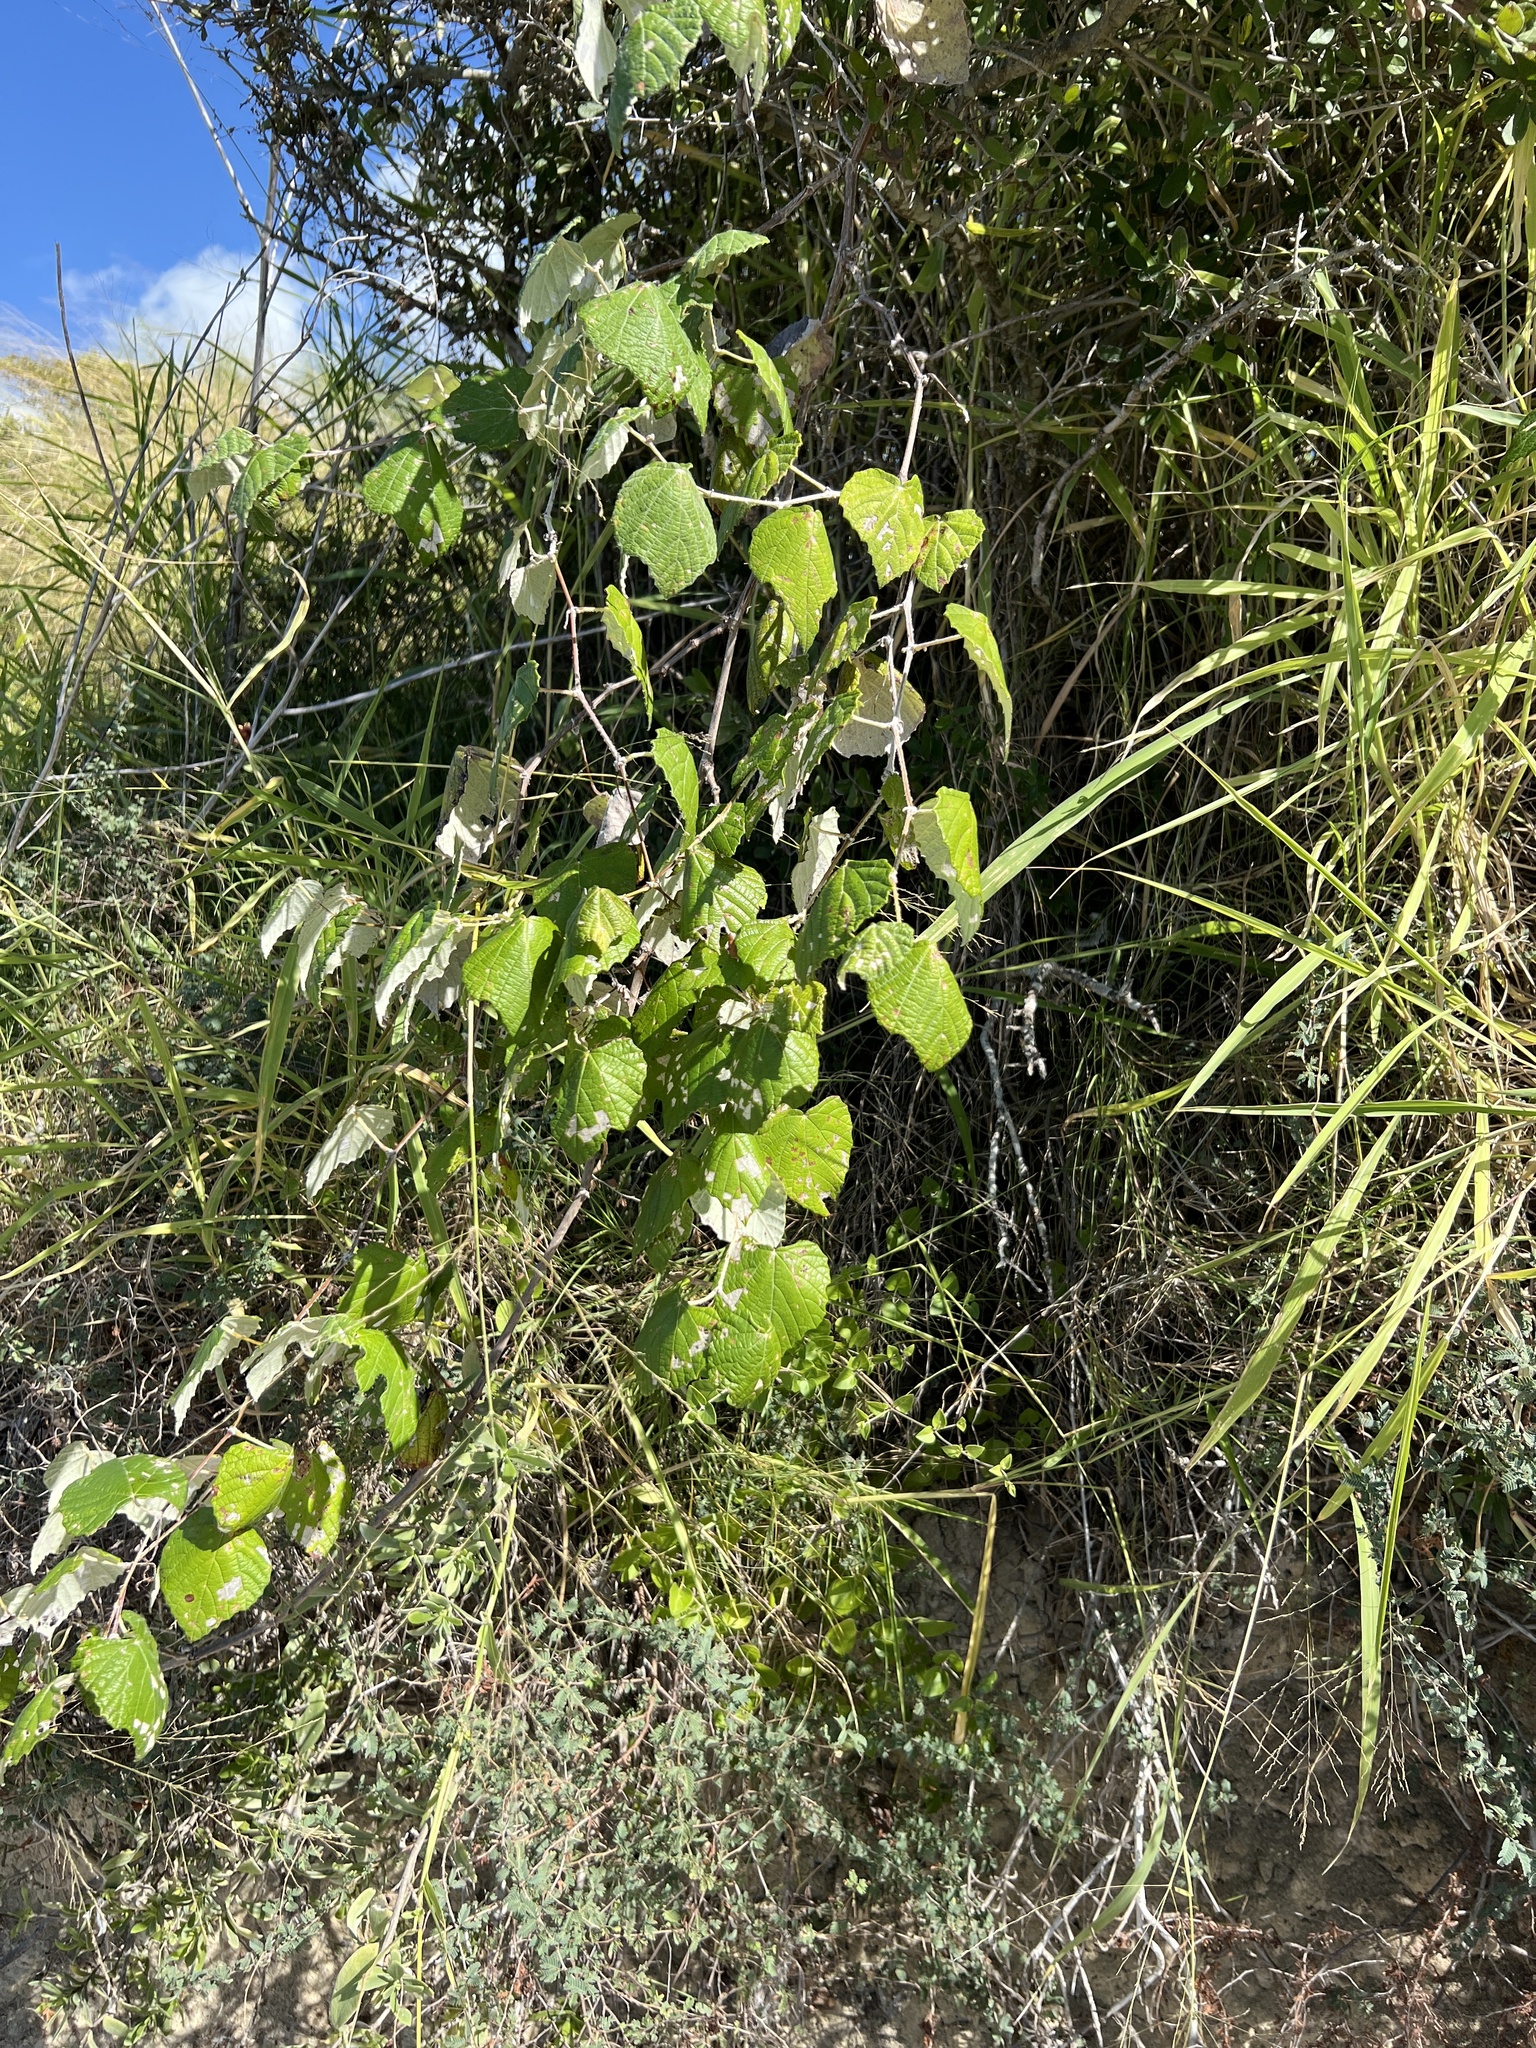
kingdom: Plantae
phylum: Tracheophyta
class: Magnoliopsida
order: Vitales
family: Vitaceae
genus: Vitis
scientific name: Vitis mustangensis
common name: Mustang grape
